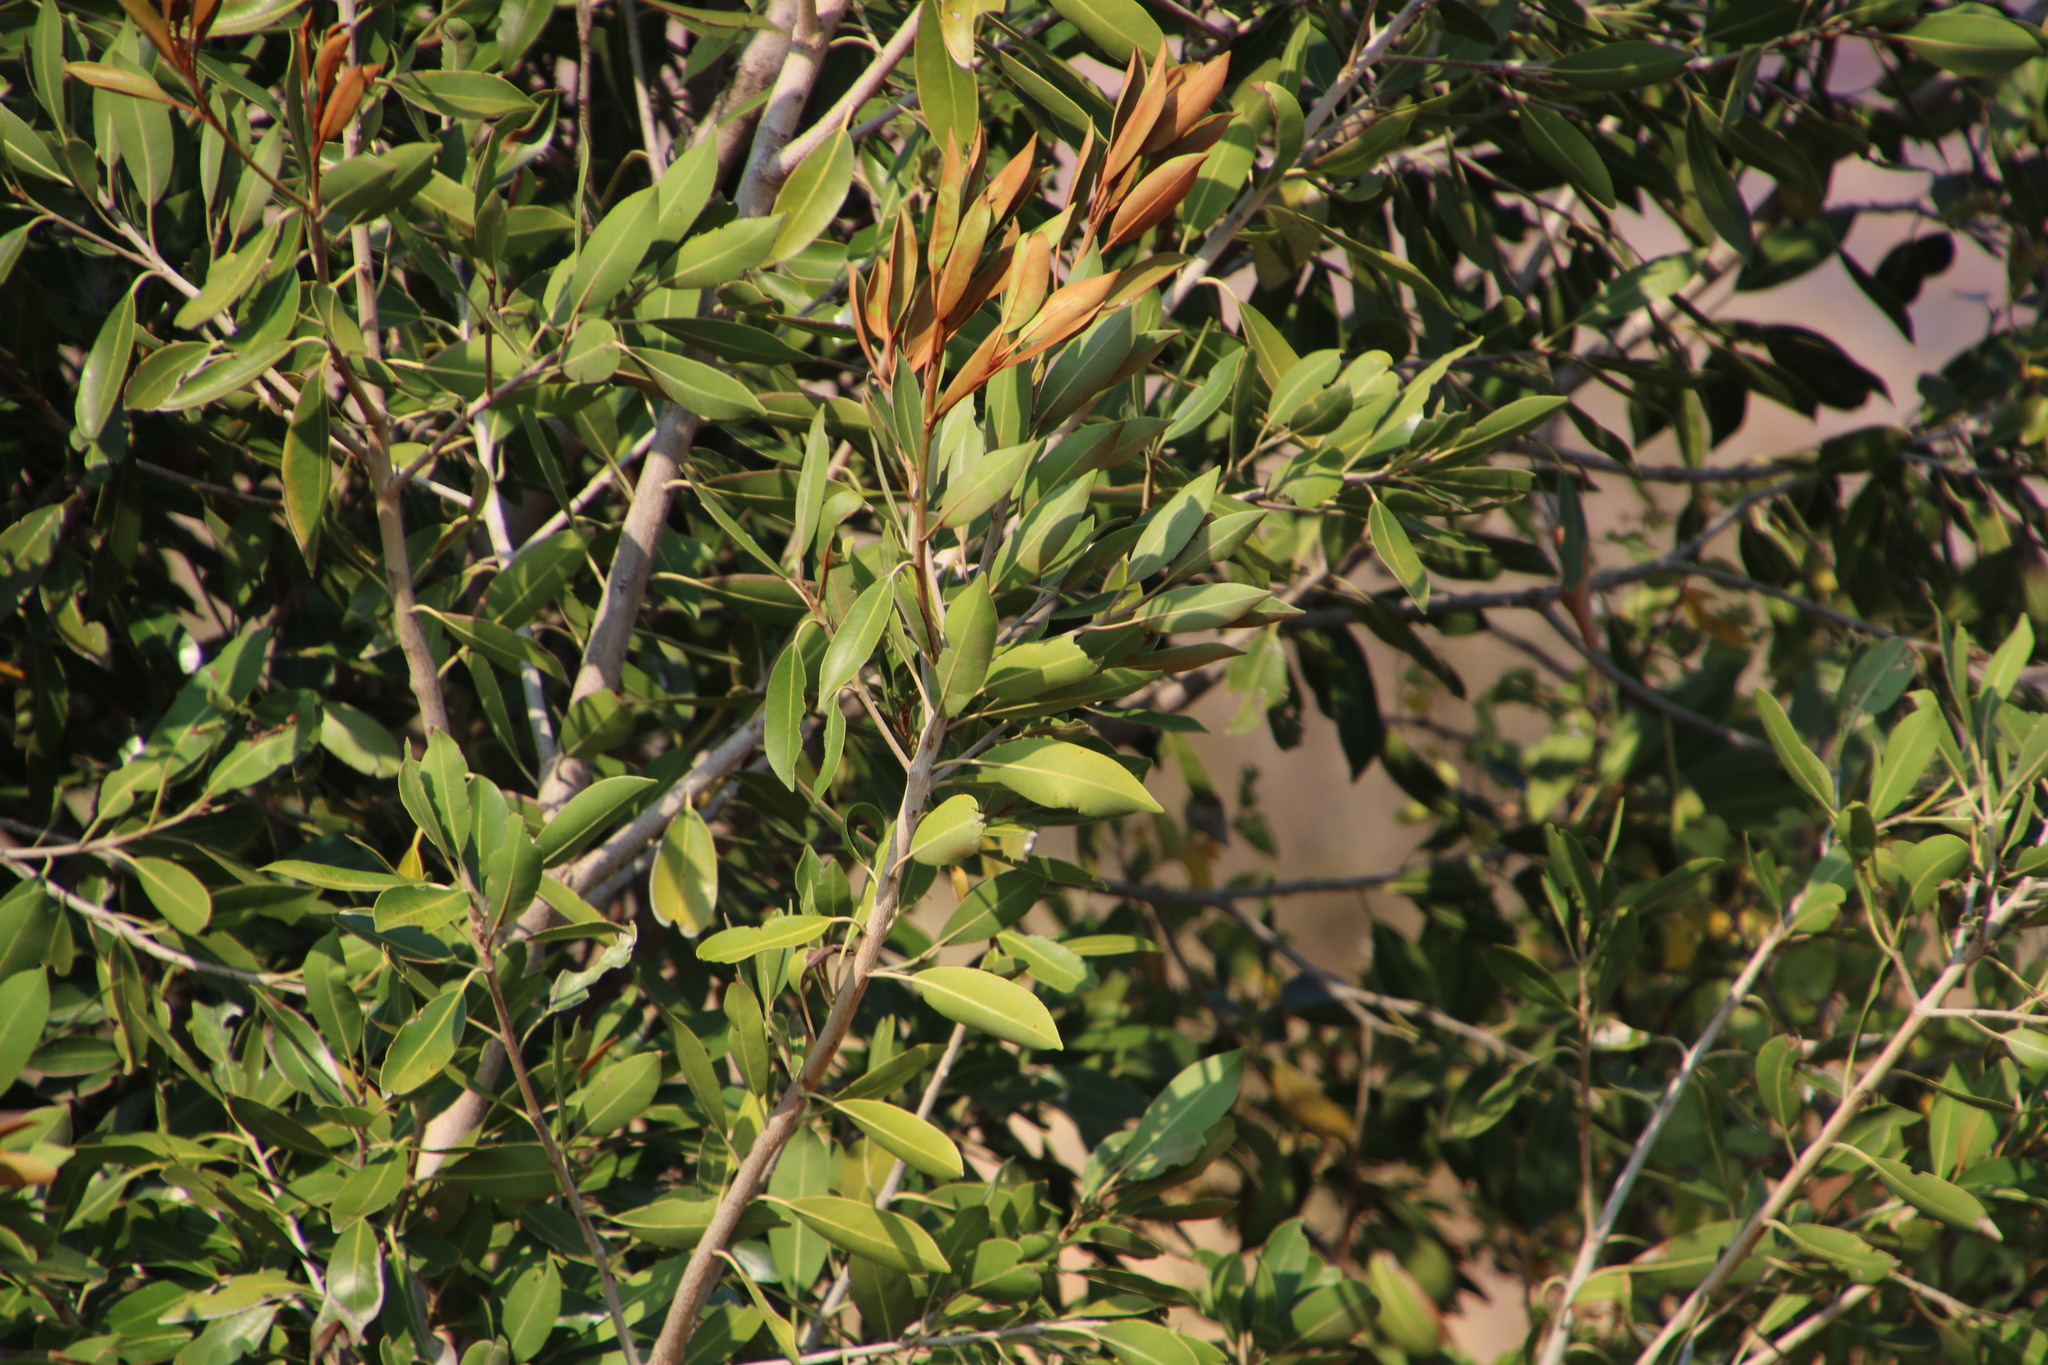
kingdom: Plantae
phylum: Tracheophyta
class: Magnoliopsida
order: Ericales
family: Sapotaceae
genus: Mimusops
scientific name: Mimusops zeyheri
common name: Transvaal red milkwood
